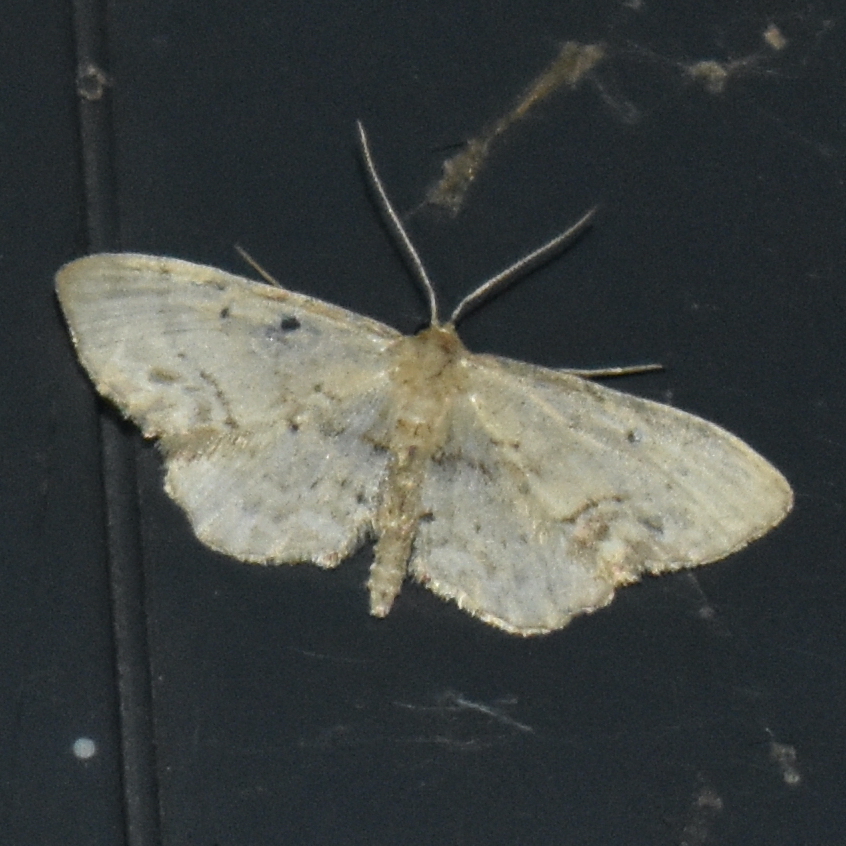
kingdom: Animalia
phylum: Arthropoda
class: Insecta
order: Lepidoptera
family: Geometridae
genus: Idaea
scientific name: Idaea dimidiata
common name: Single-dotted wave
